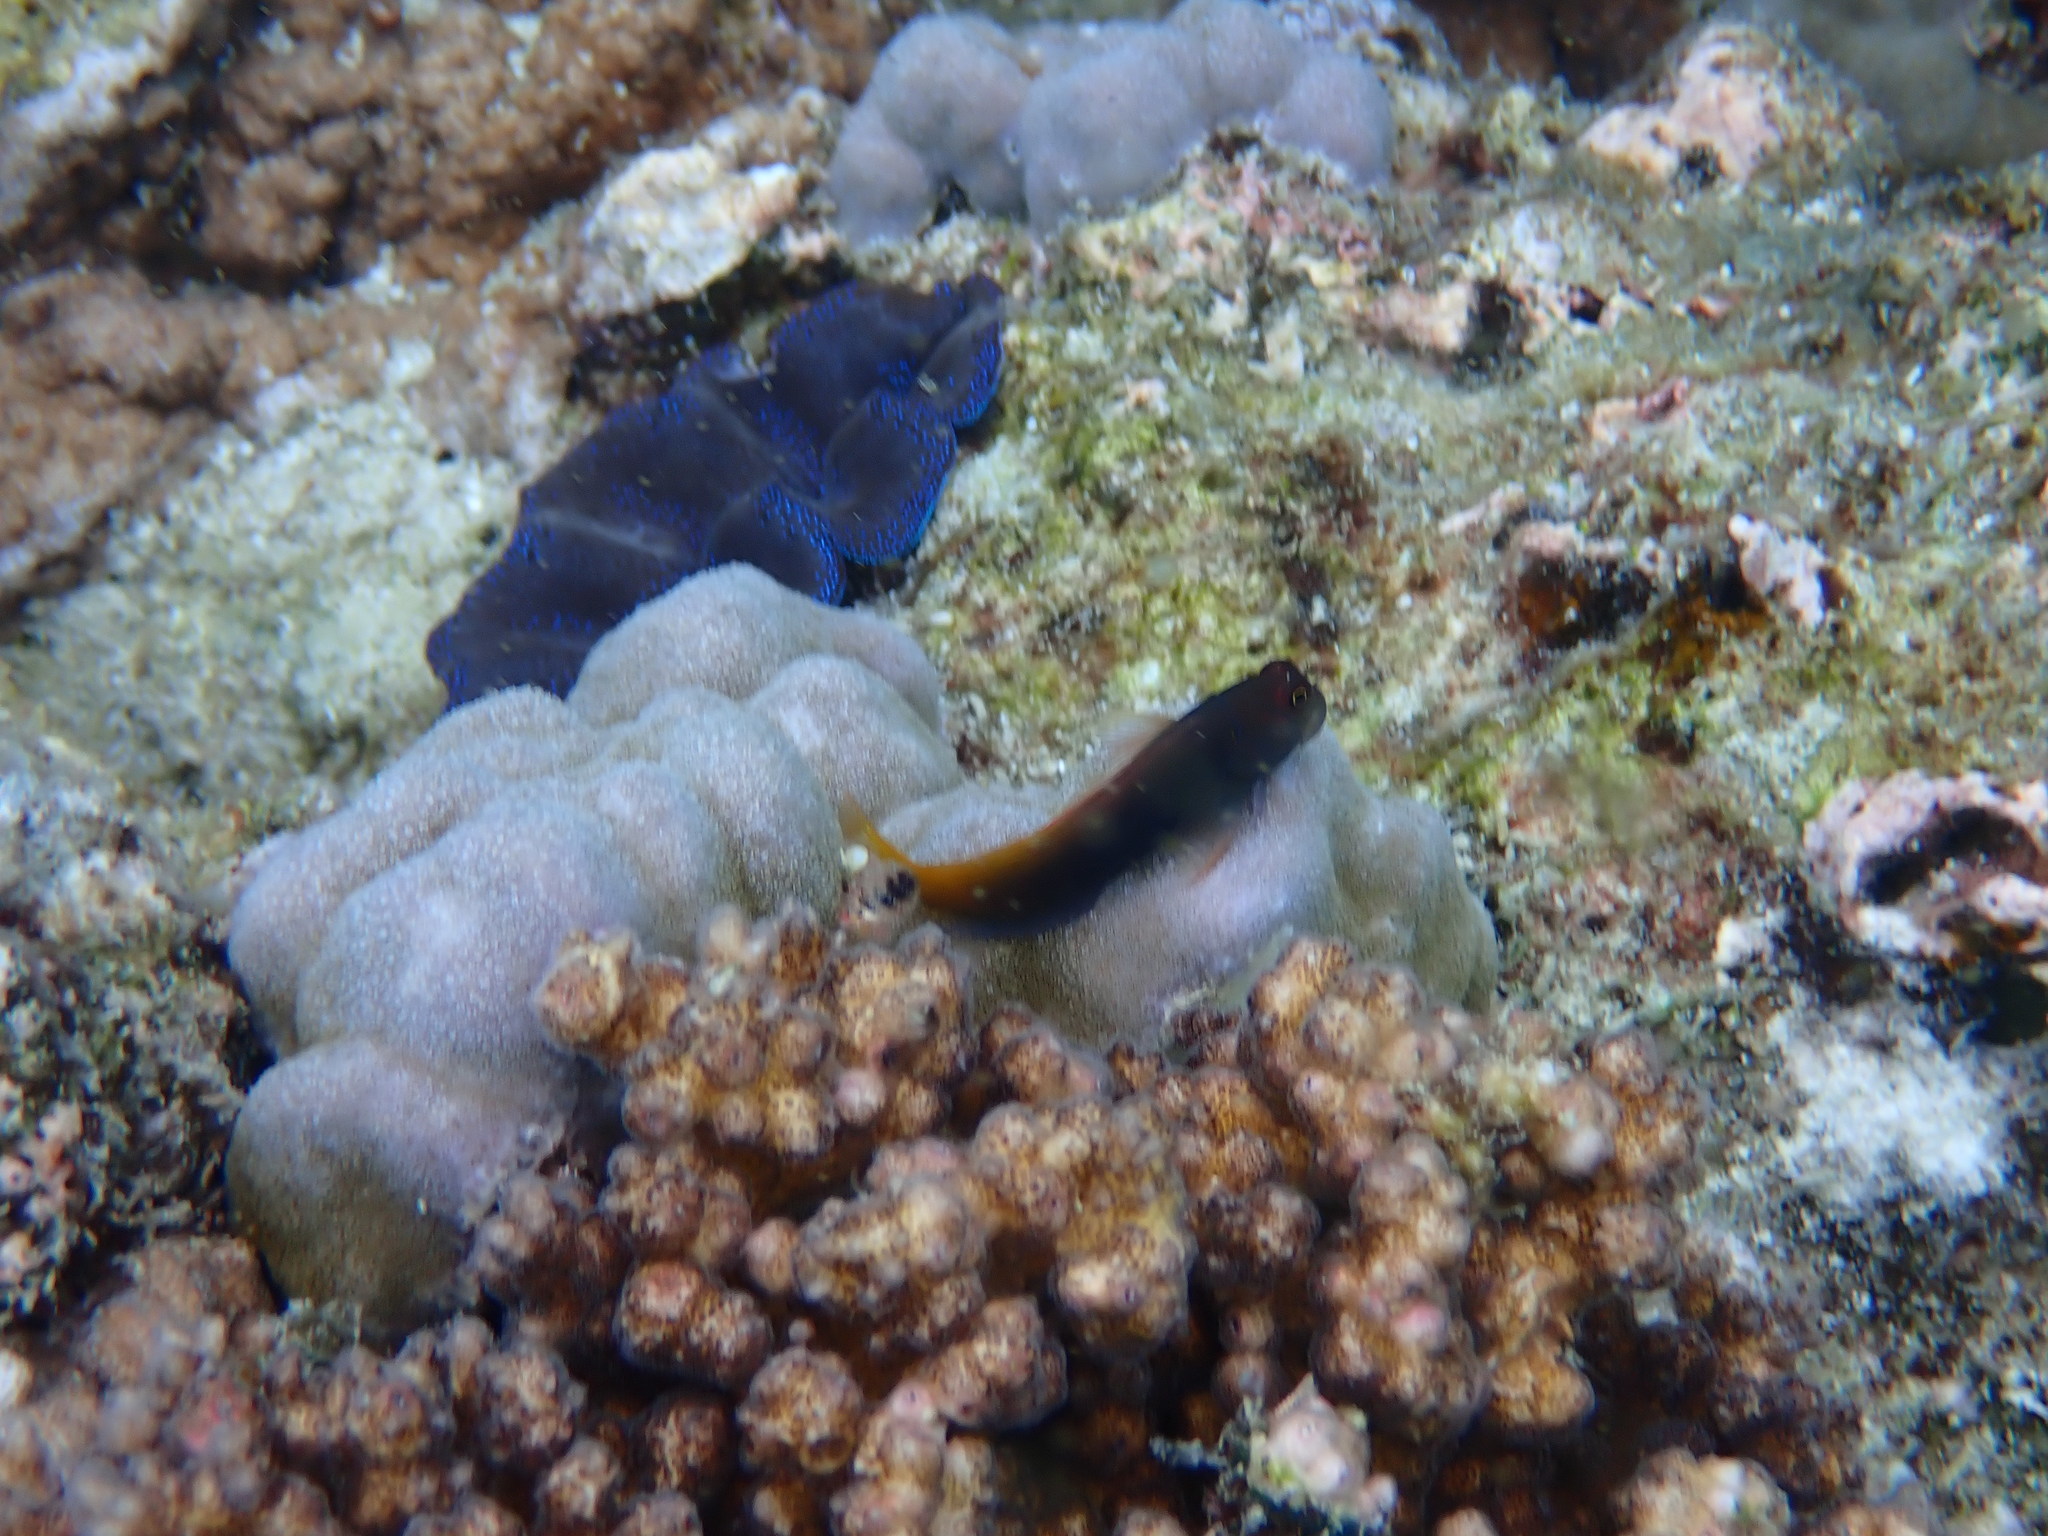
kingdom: Animalia
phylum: Chordata
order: Perciformes
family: Blenniidae
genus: Ecsenius
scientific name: Ecsenius bicolor
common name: Bicolor blenny
